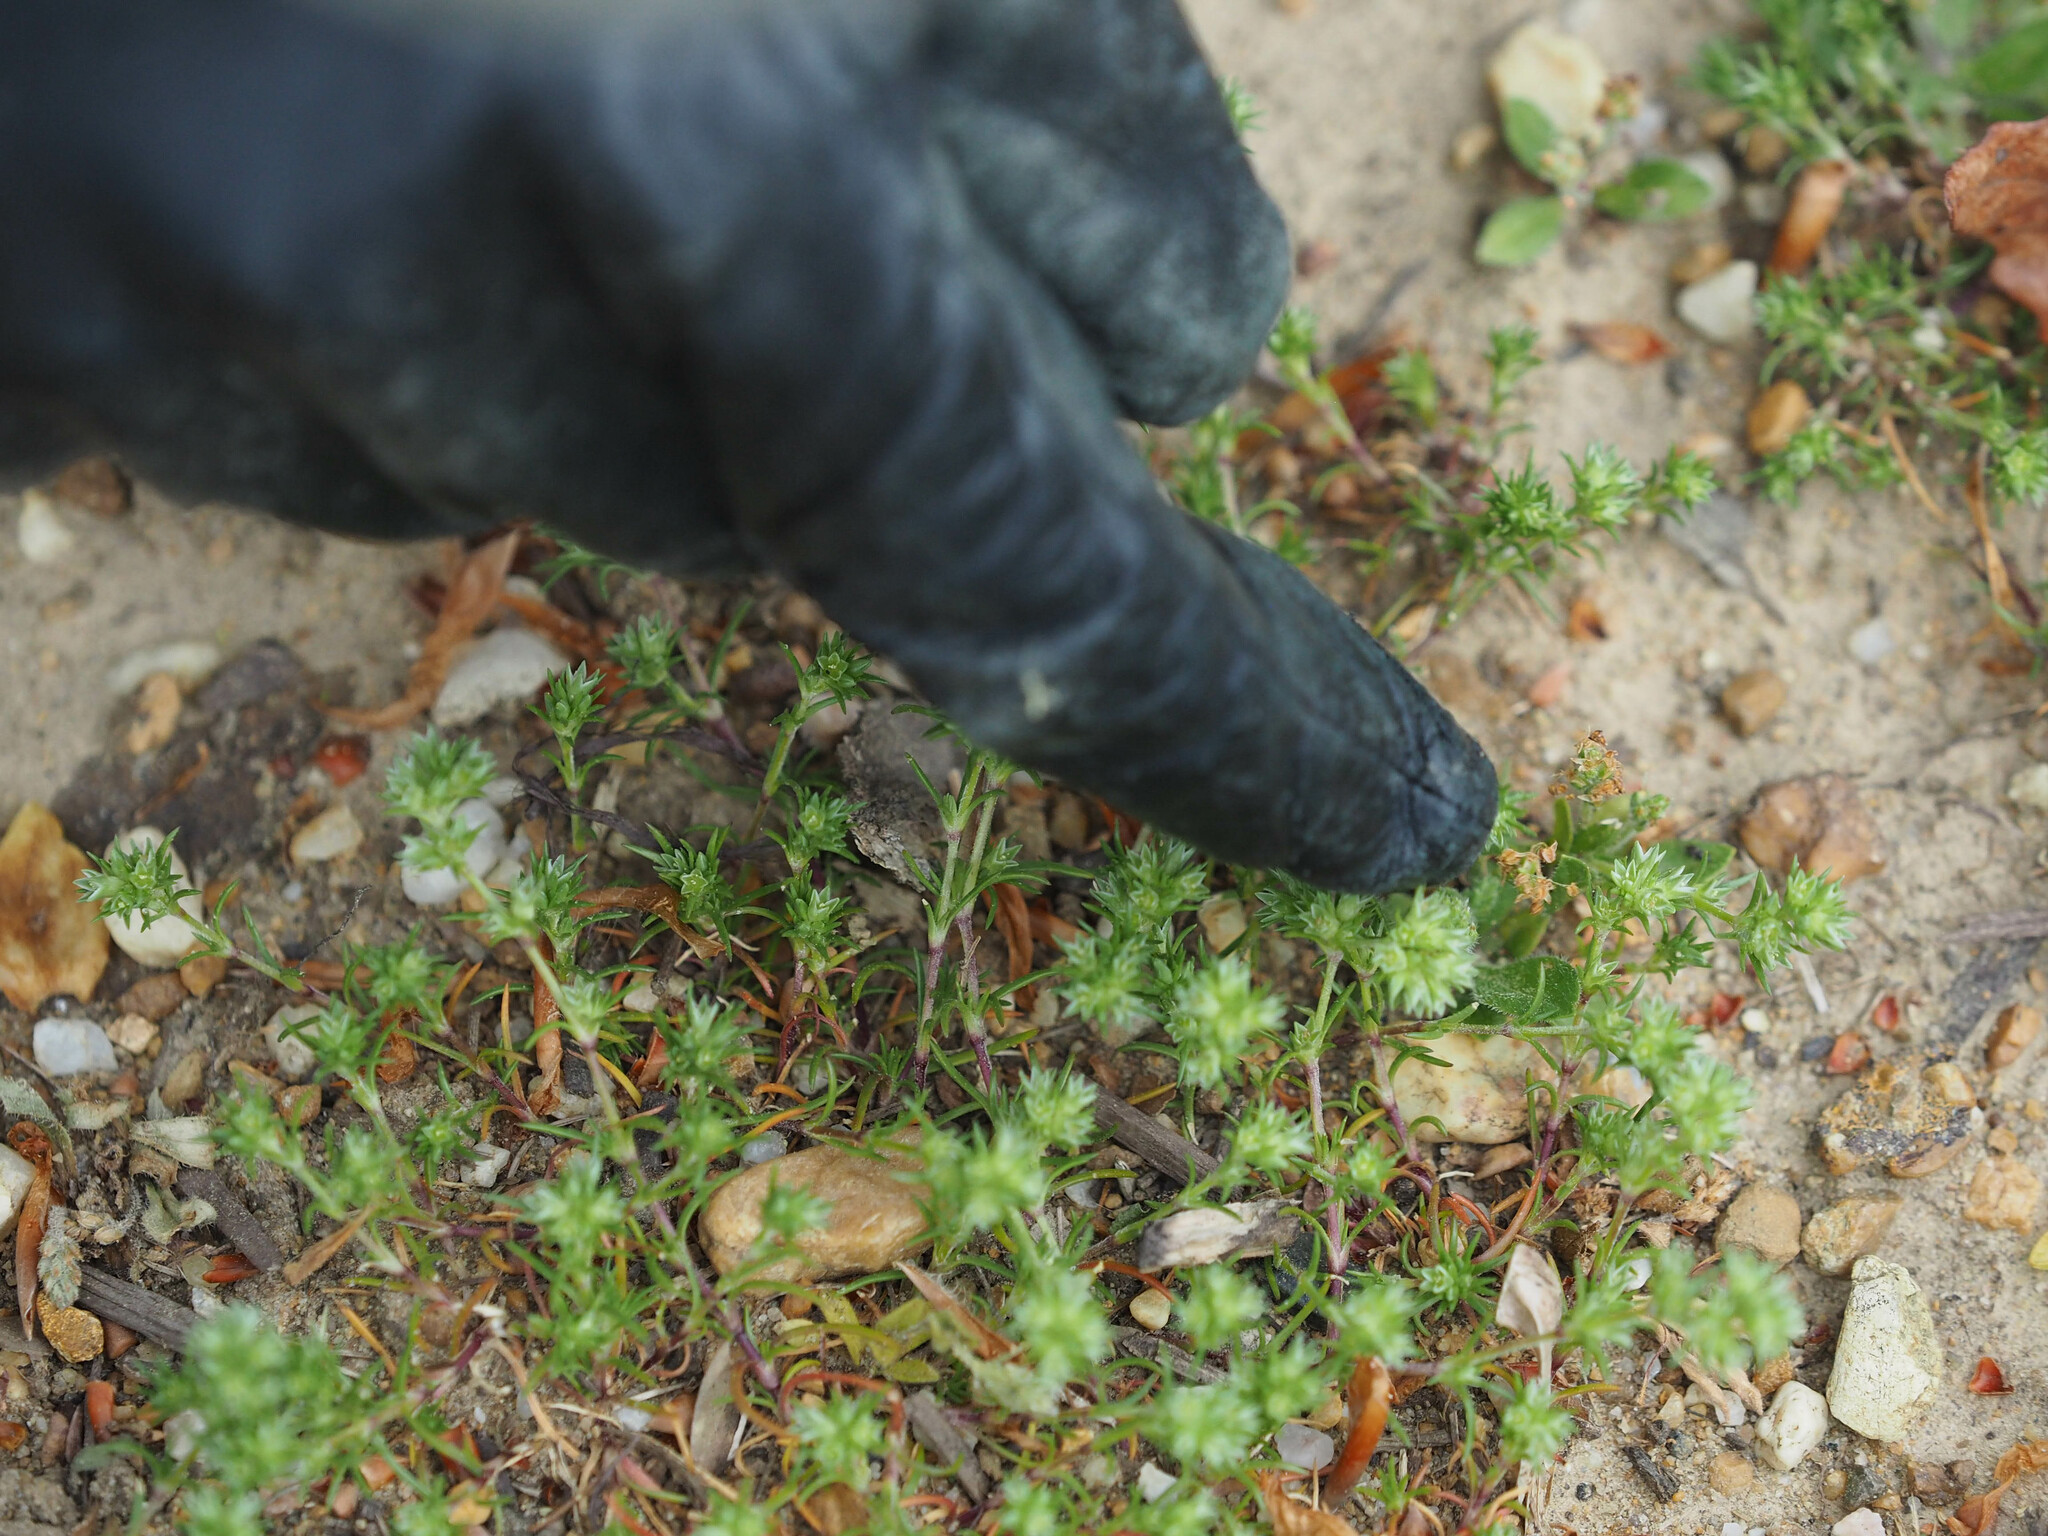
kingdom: Plantae
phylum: Tracheophyta
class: Magnoliopsida
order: Caryophyllales
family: Caryophyllaceae
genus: Scleranthus
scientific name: Scleranthus annuus
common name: Annual knawel
